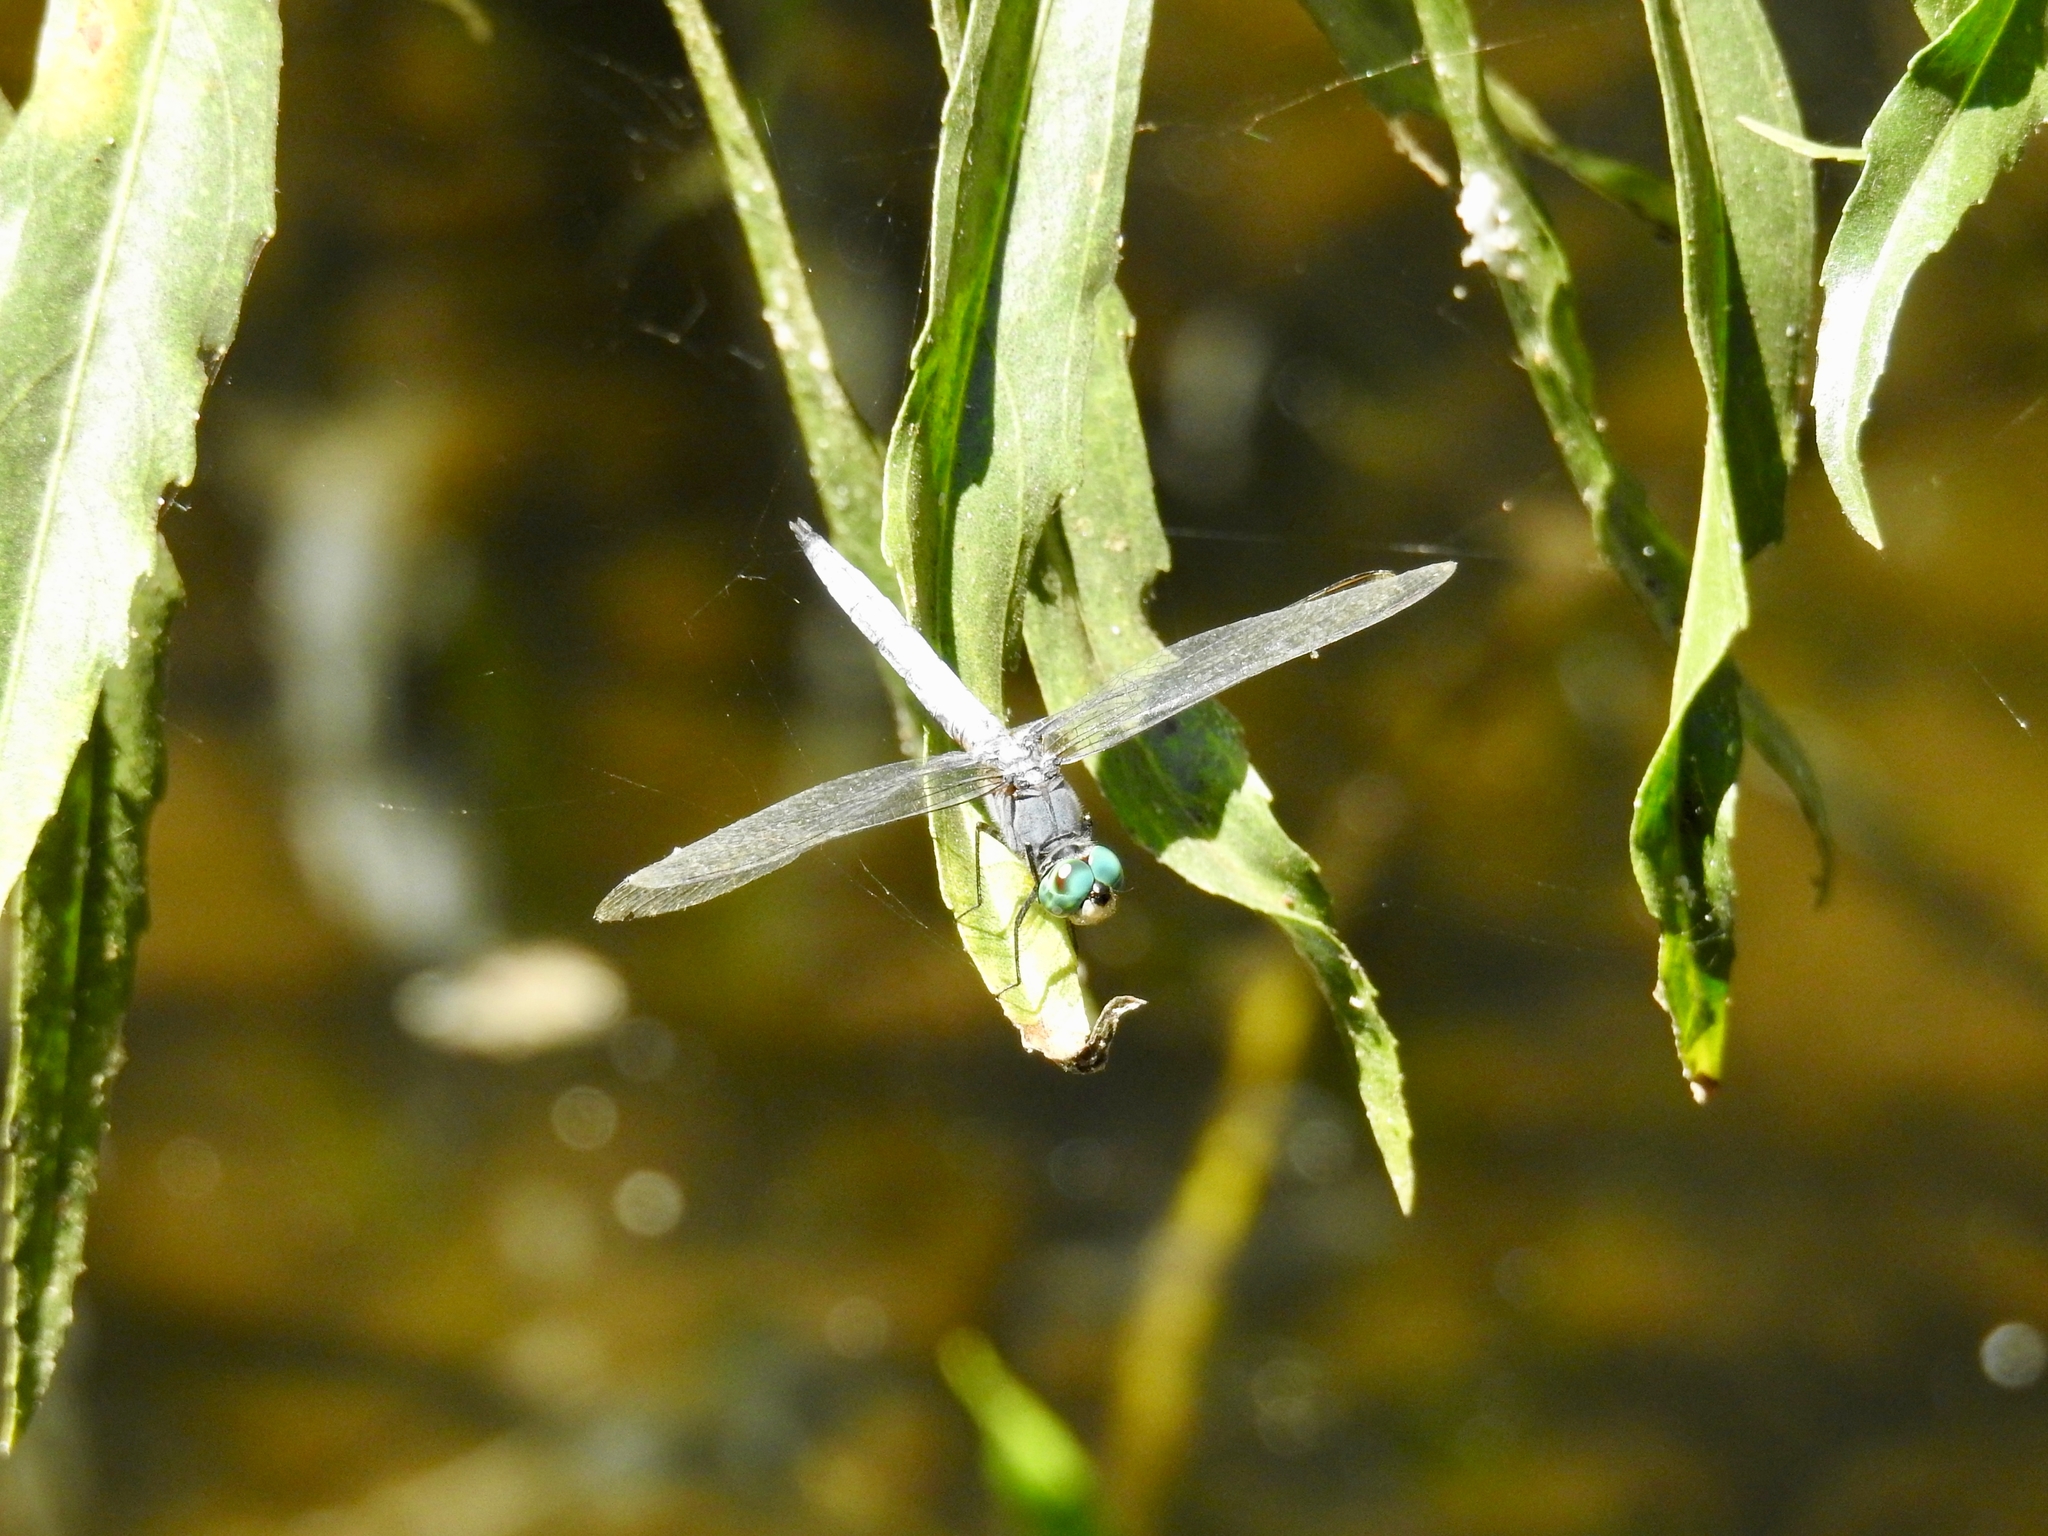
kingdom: Animalia
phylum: Arthropoda
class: Insecta
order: Odonata
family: Libellulidae
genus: Pachydiplax
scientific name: Pachydiplax longipennis
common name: Blue dasher
